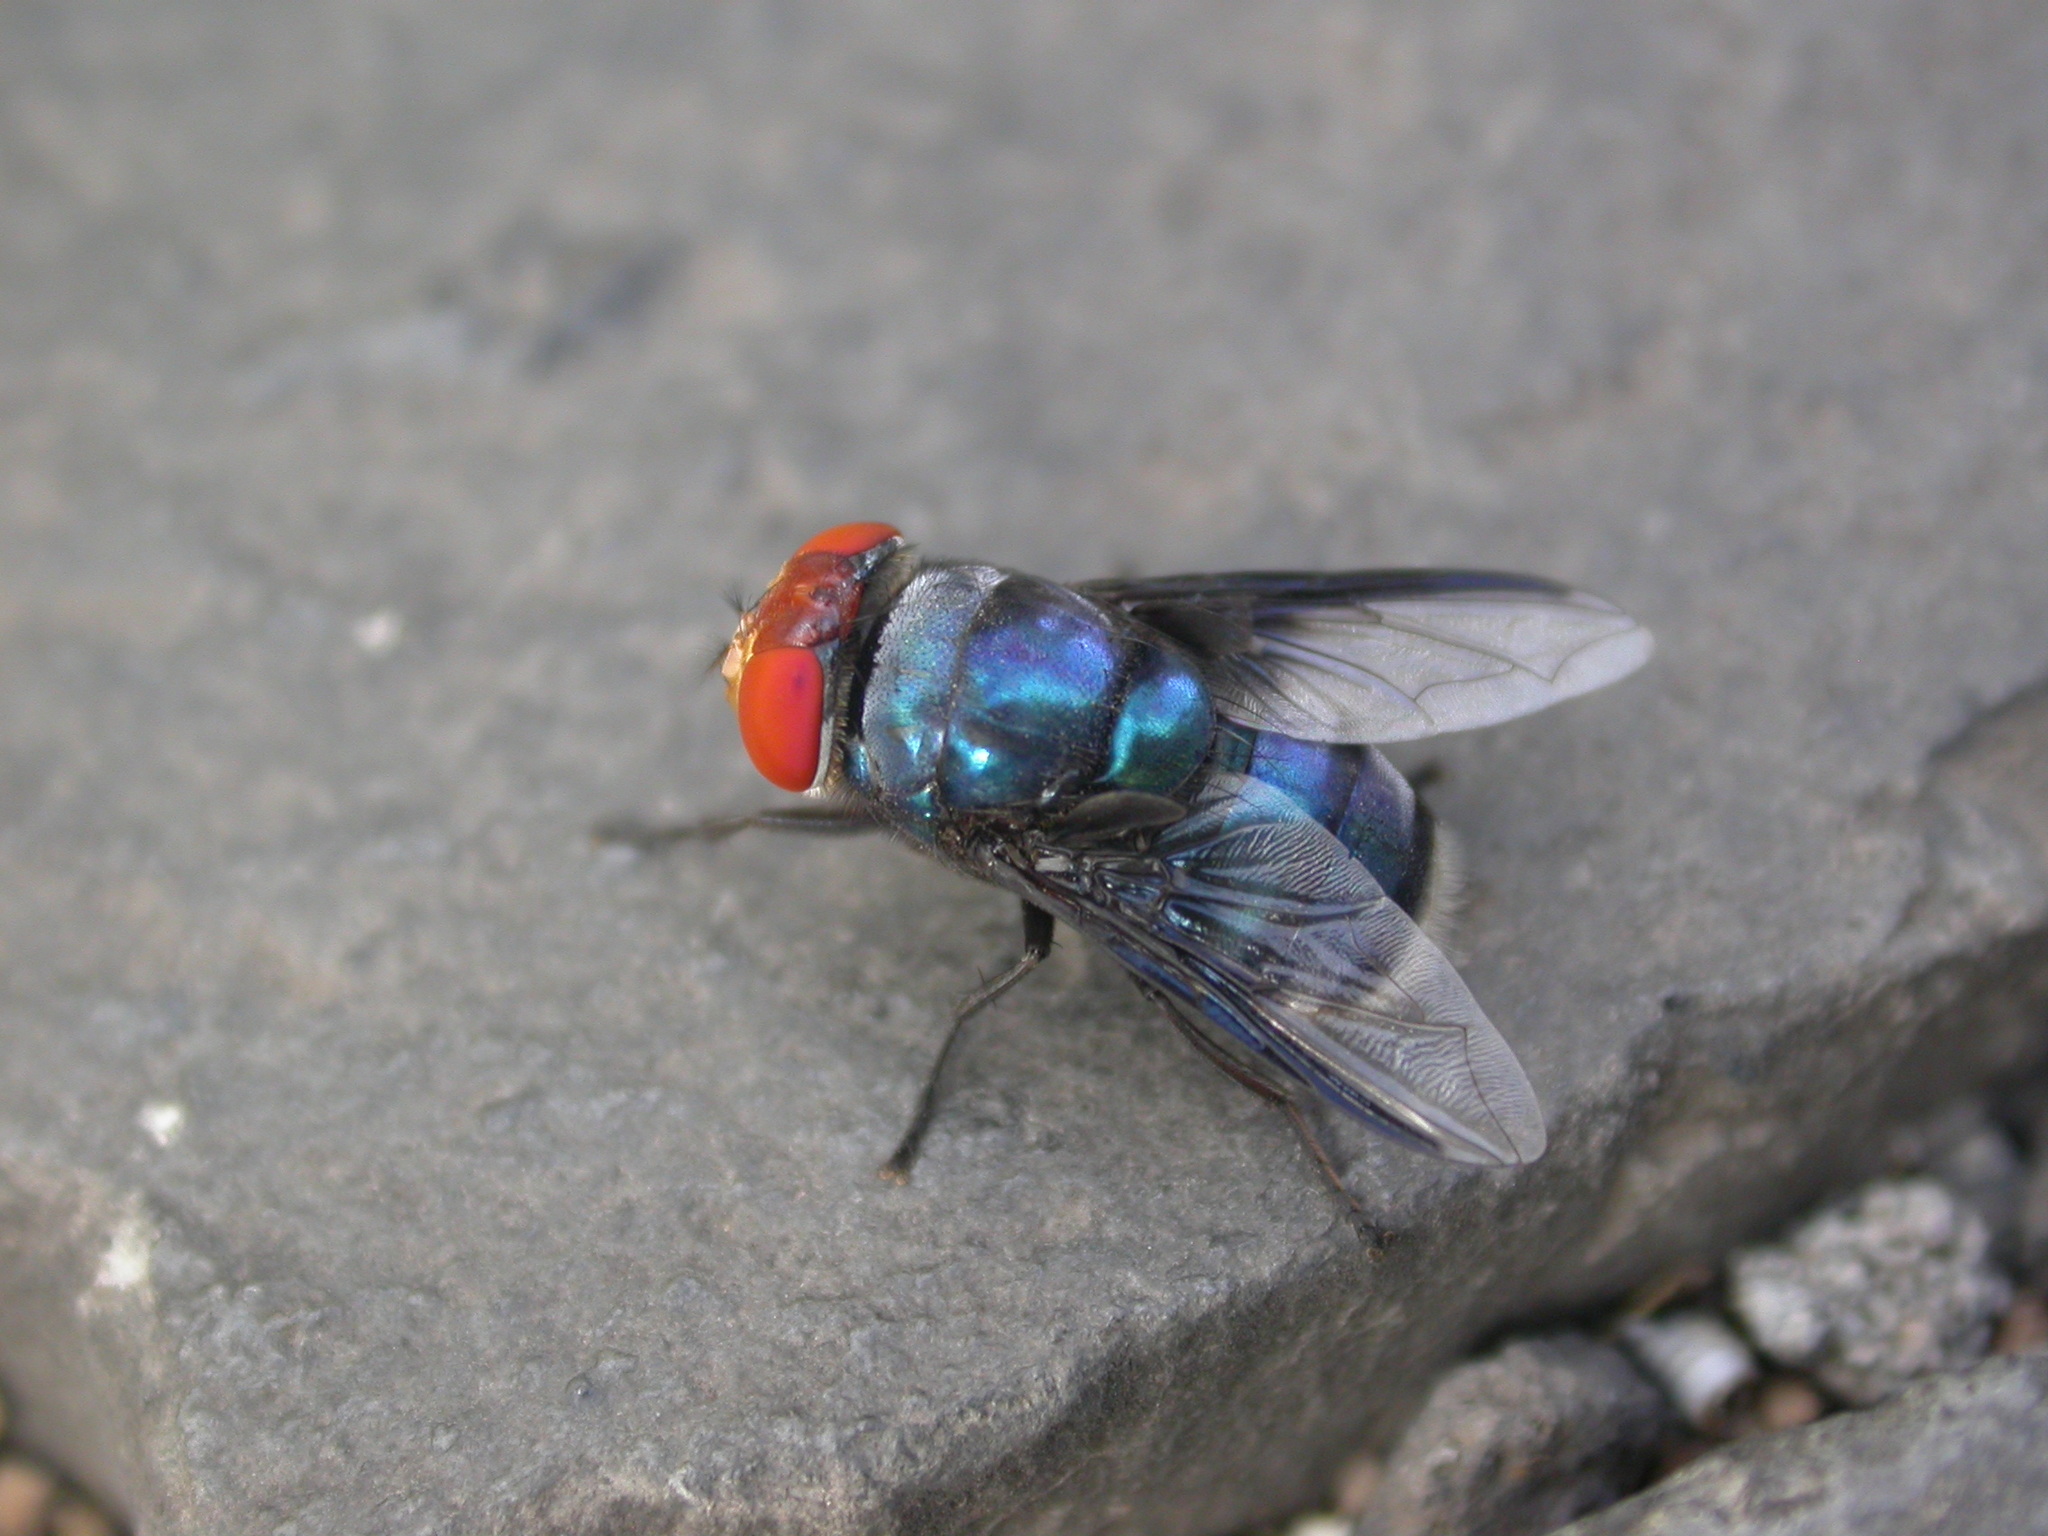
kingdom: Animalia
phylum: Arthropoda
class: Insecta
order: Diptera
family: Calliphoridae
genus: Chrysomya
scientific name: Chrysomya marginalis
